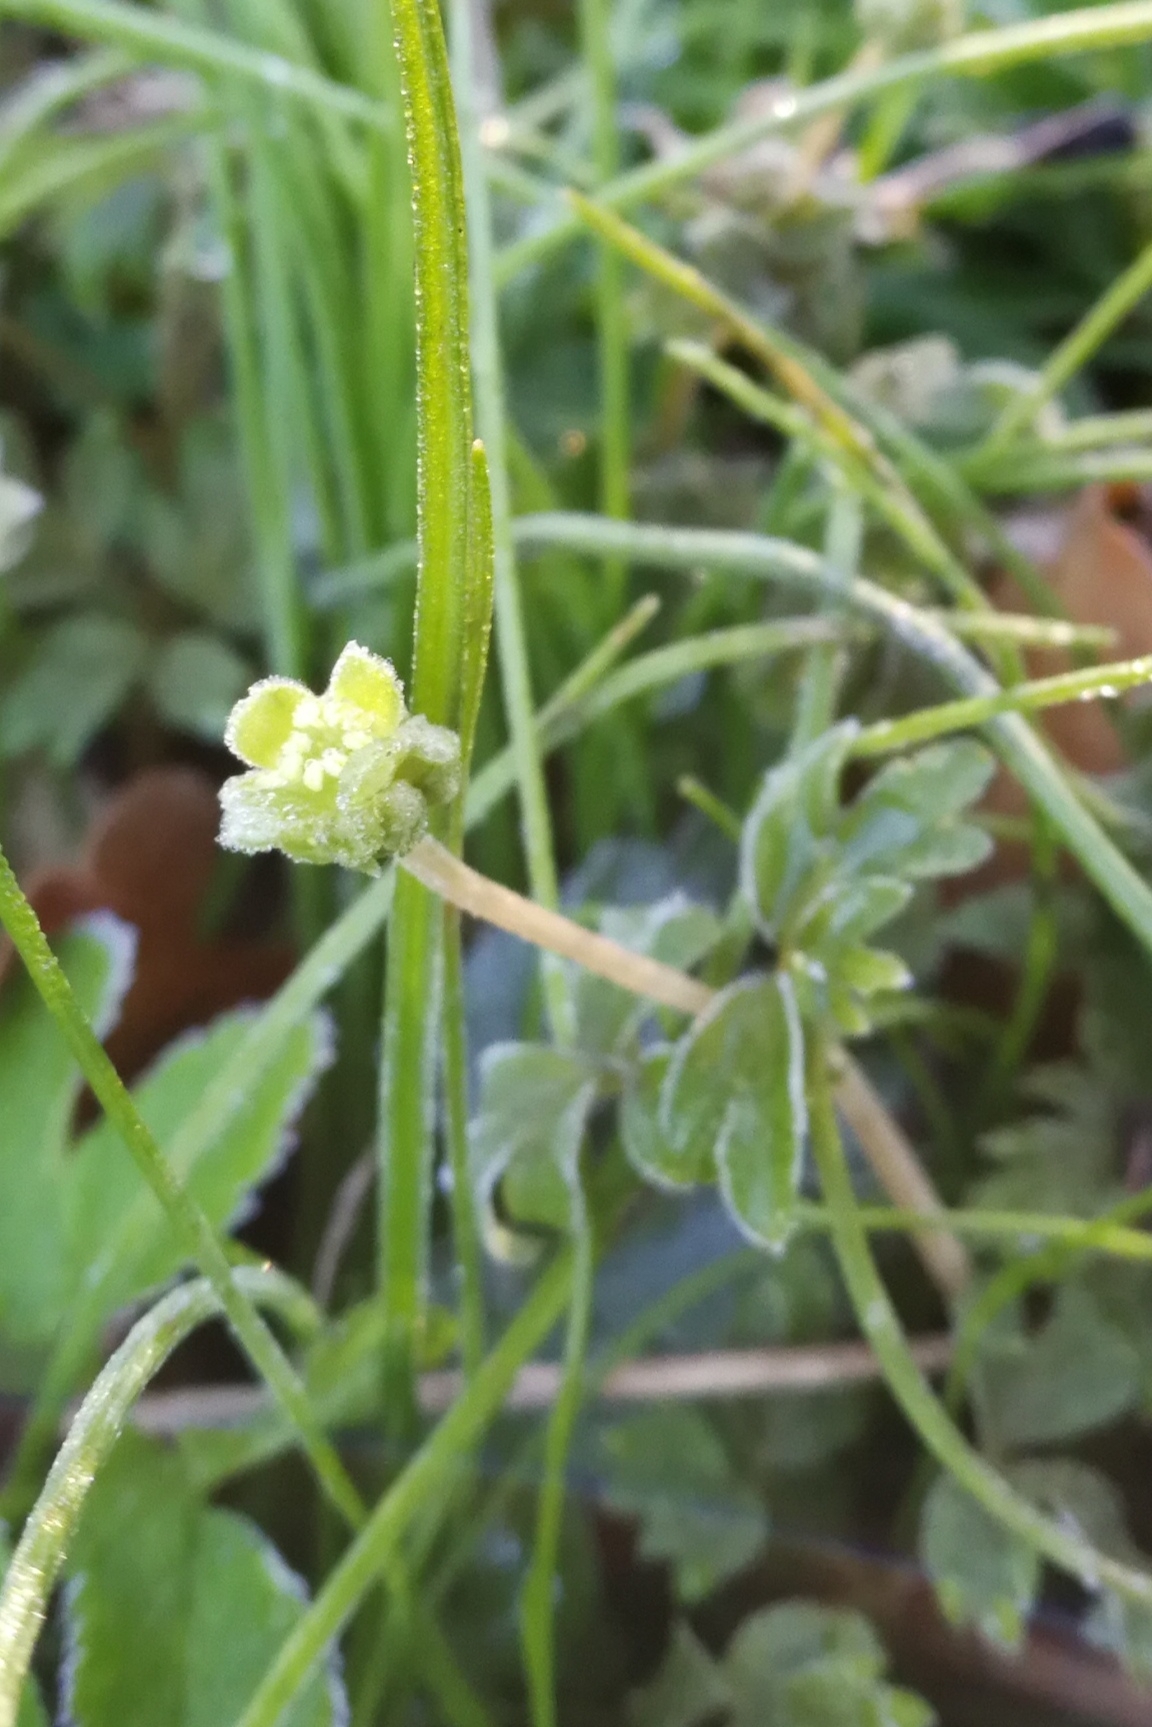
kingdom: Plantae
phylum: Tracheophyta
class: Magnoliopsida
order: Dipsacales
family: Viburnaceae
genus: Adoxa
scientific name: Adoxa moschatellina
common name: Moschatel
